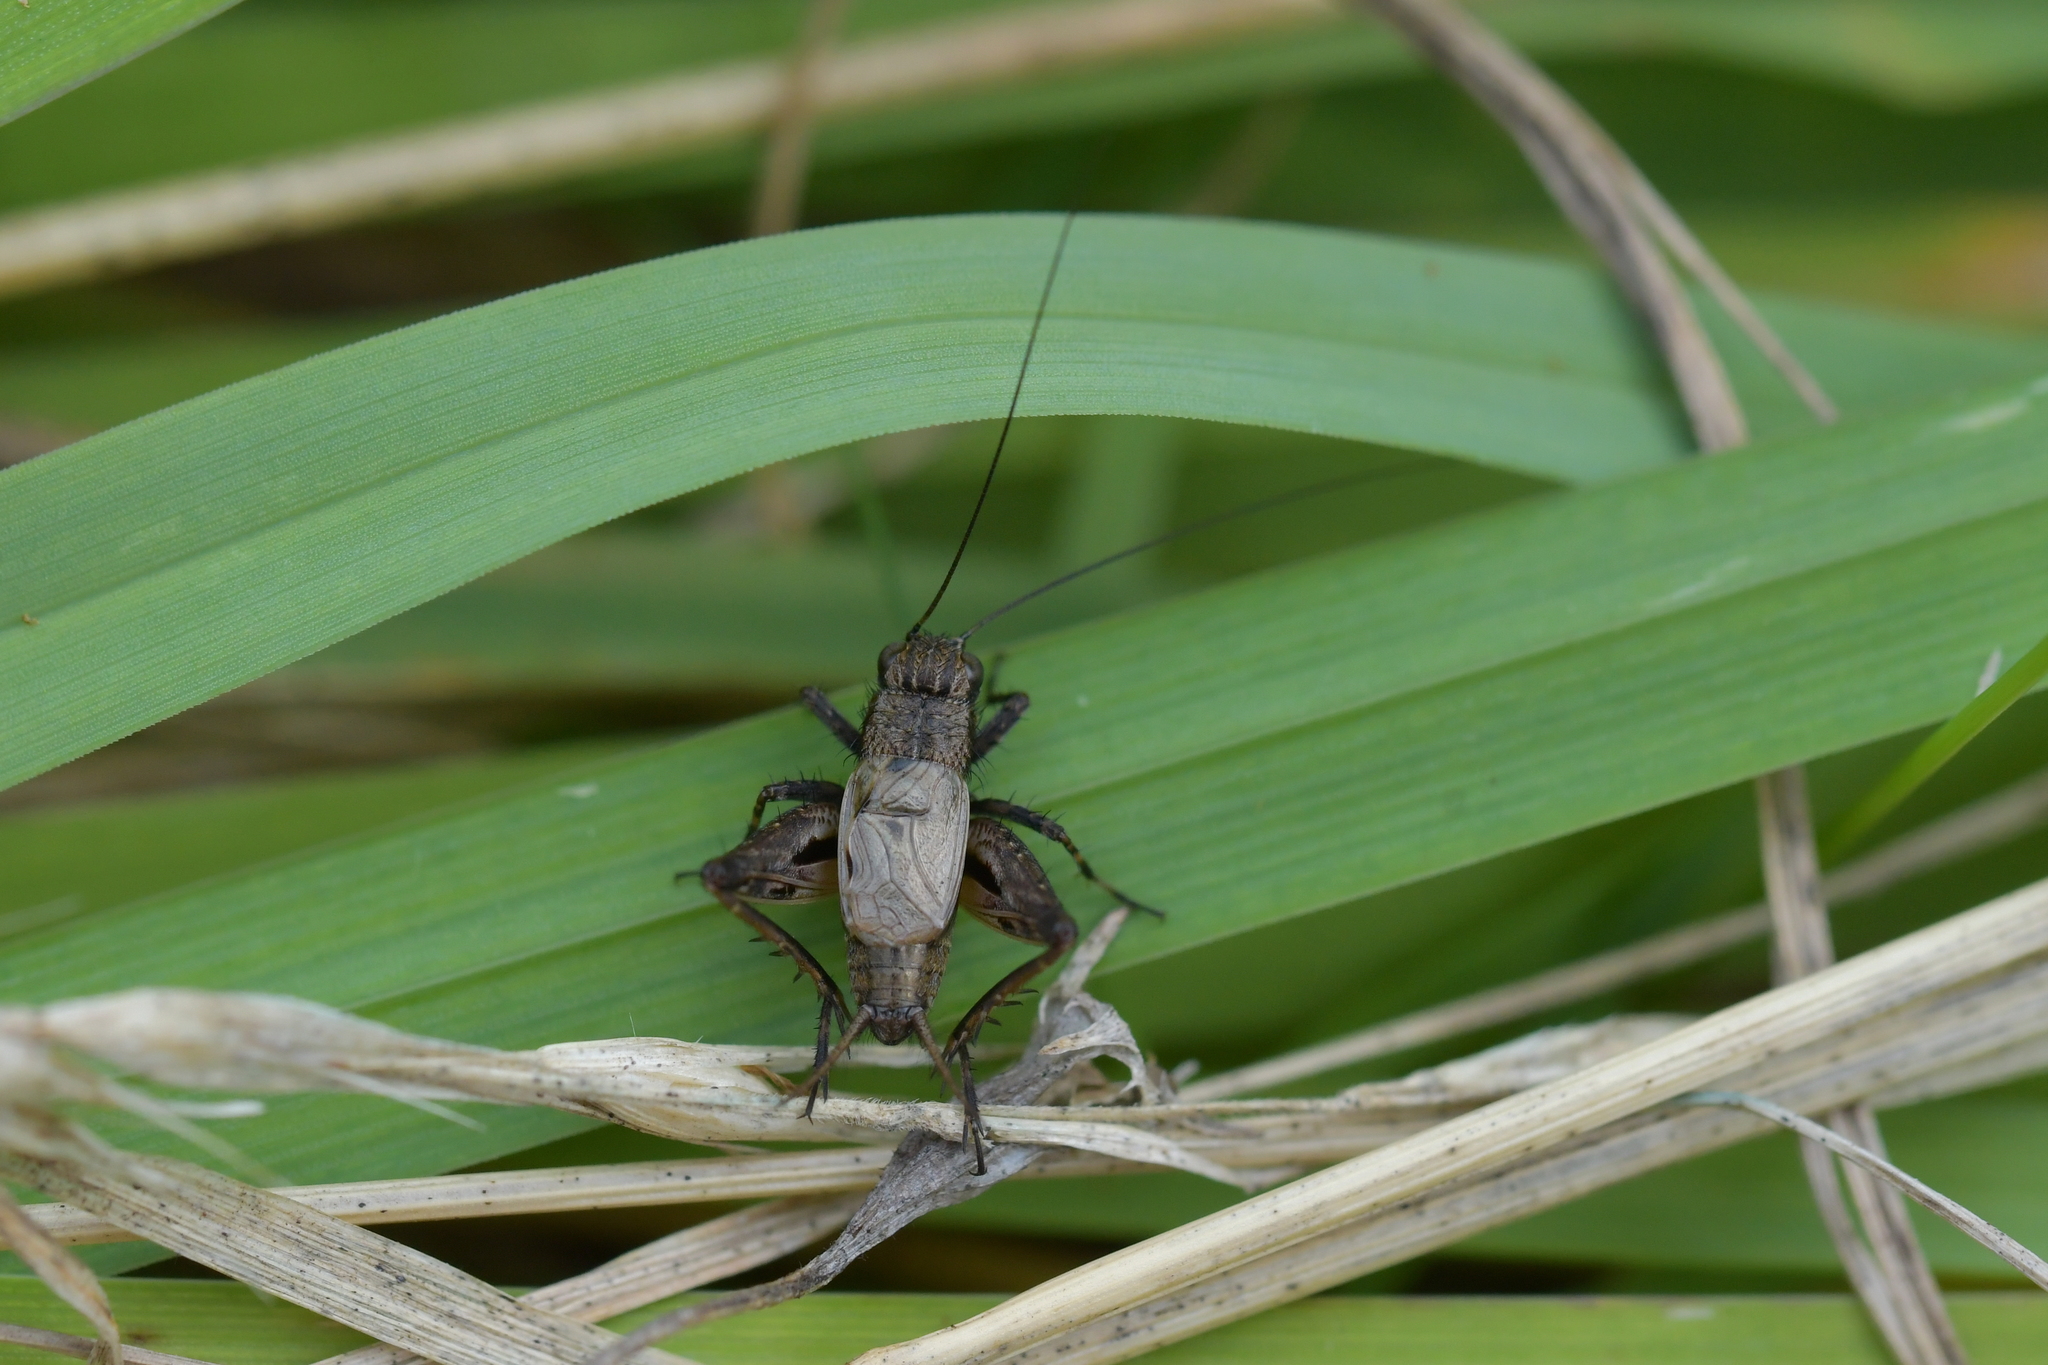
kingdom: Animalia
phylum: Arthropoda
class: Insecta
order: Orthoptera
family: Trigonidiidae
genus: Bobilla
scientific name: Bobilla bigelowi
